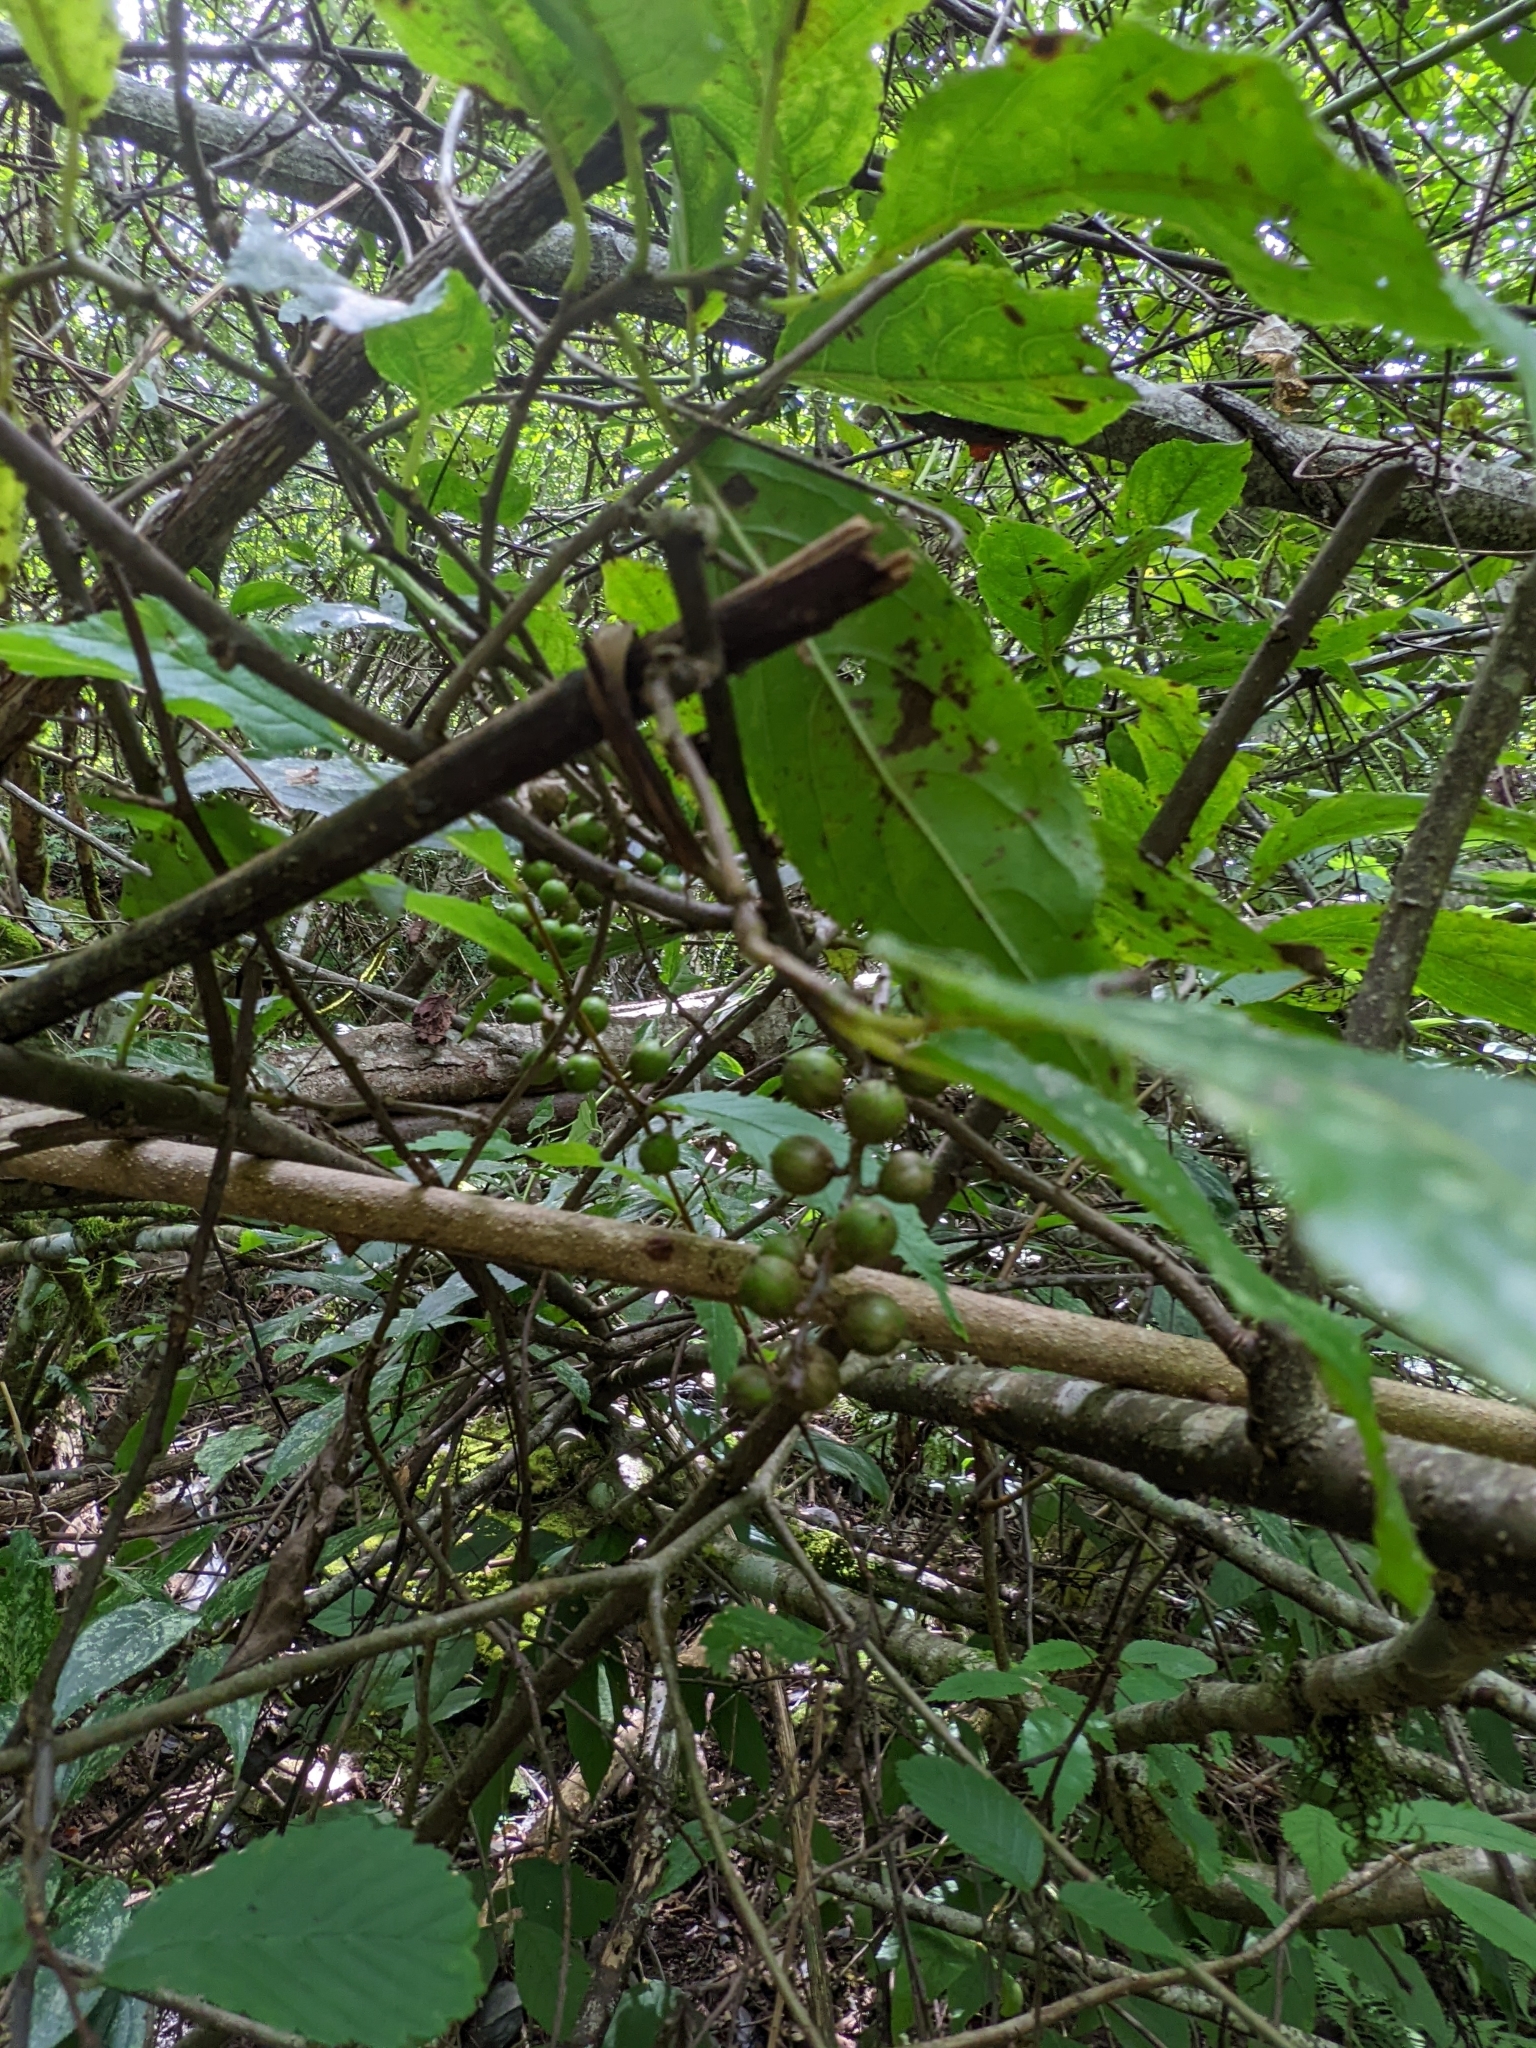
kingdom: Plantae
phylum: Tracheophyta
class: Magnoliopsida
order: Crossosomatales
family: Stachyuraceae
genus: Stachyurus
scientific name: Stachyurus himalaicus
